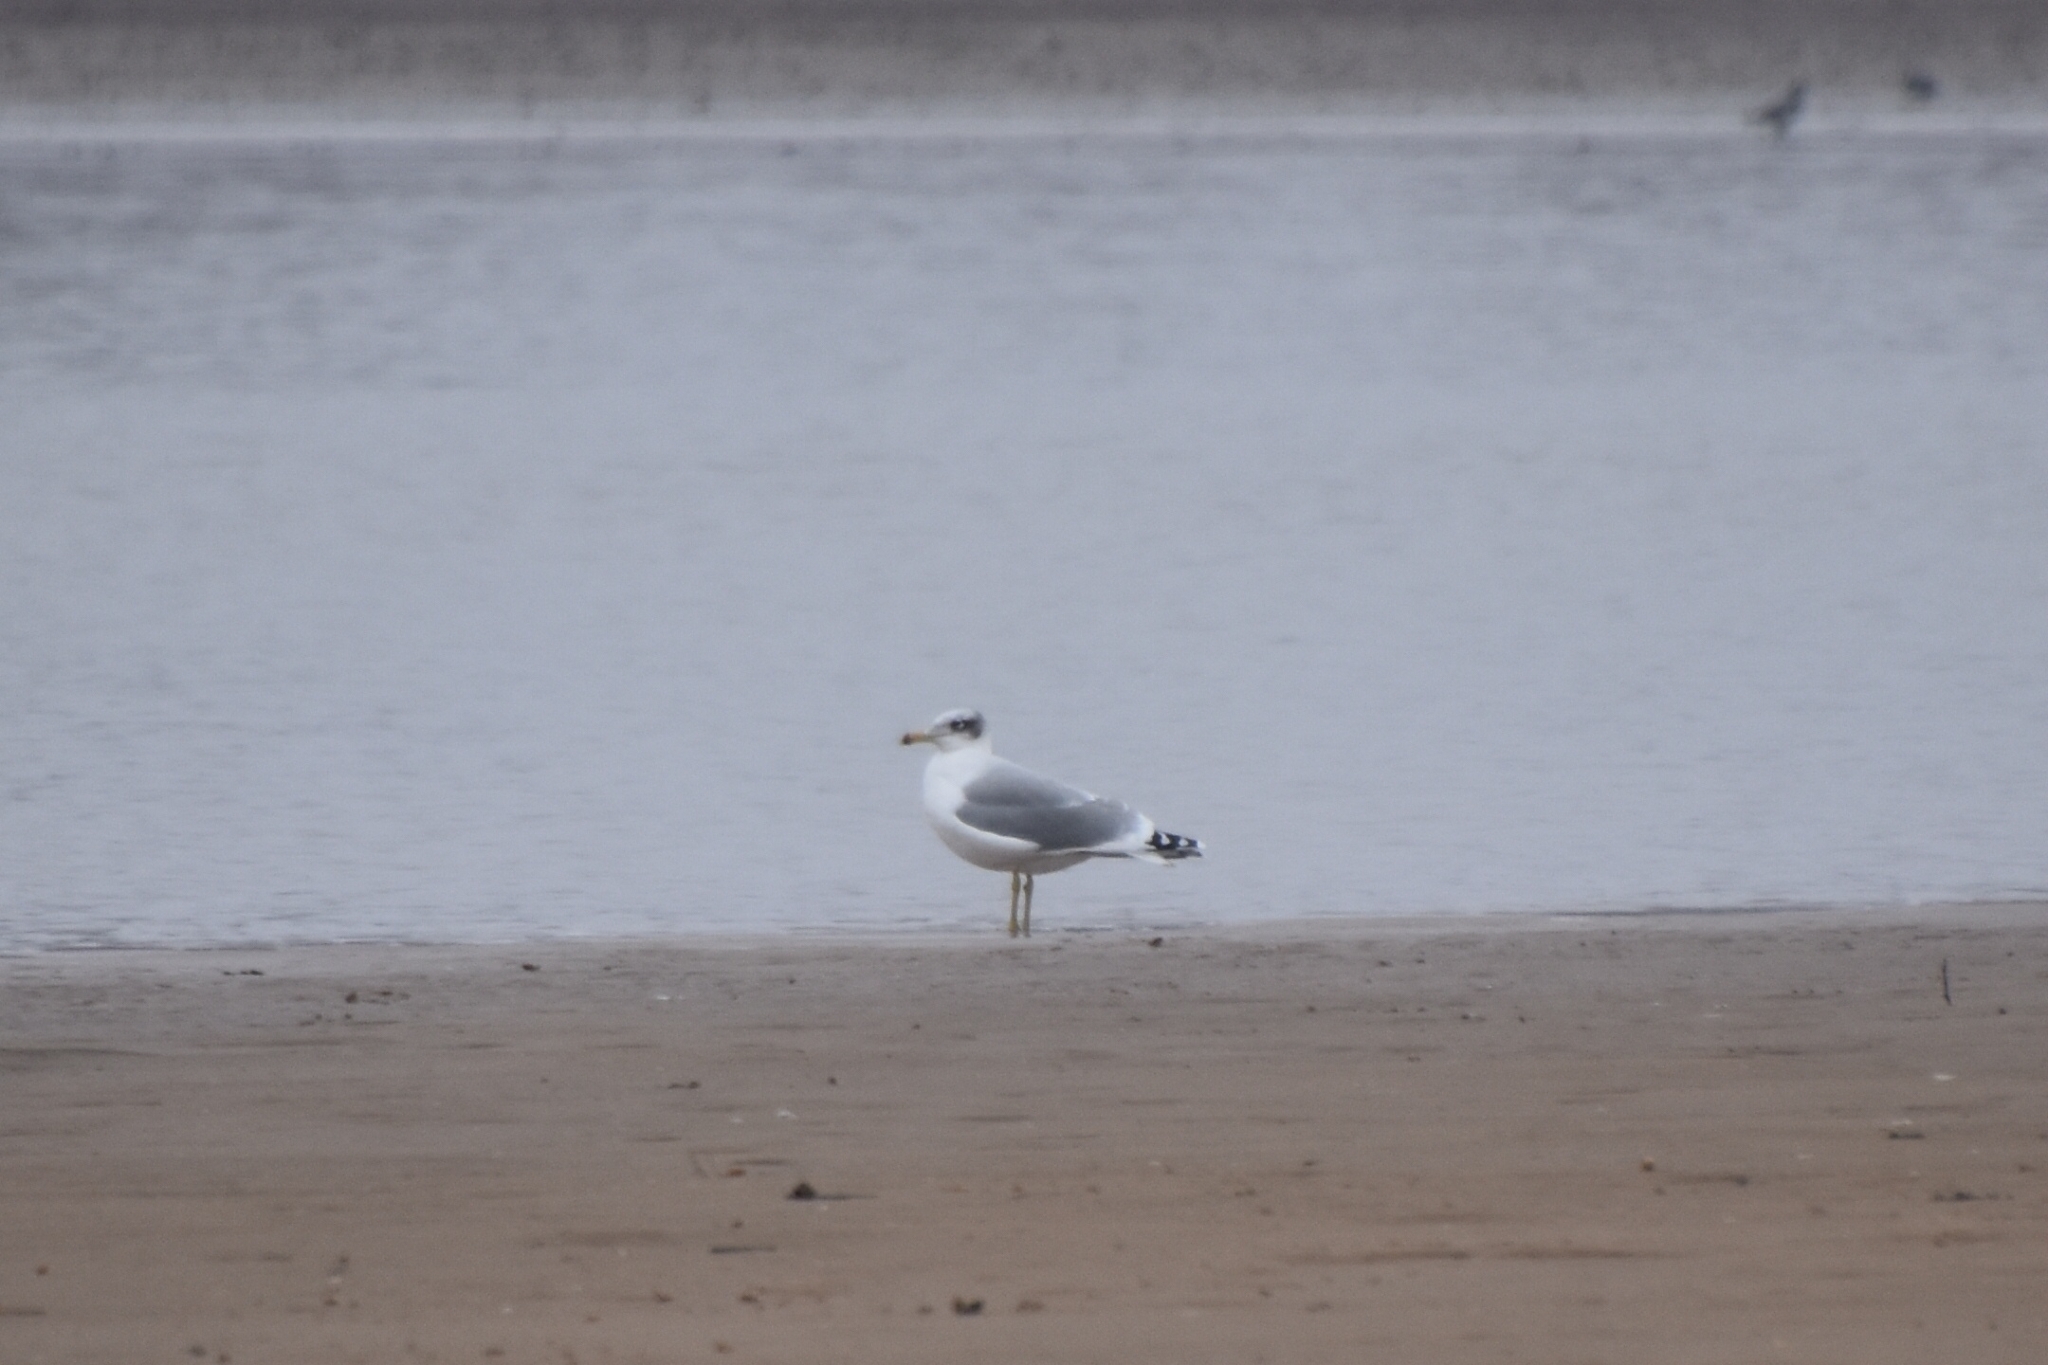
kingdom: Animalia
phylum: Chordata
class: Aves
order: Charadriiformes
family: Laridae
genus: Ichthyaetus
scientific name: Ichthyaetus ichthyaetus
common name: Pallas's gull
